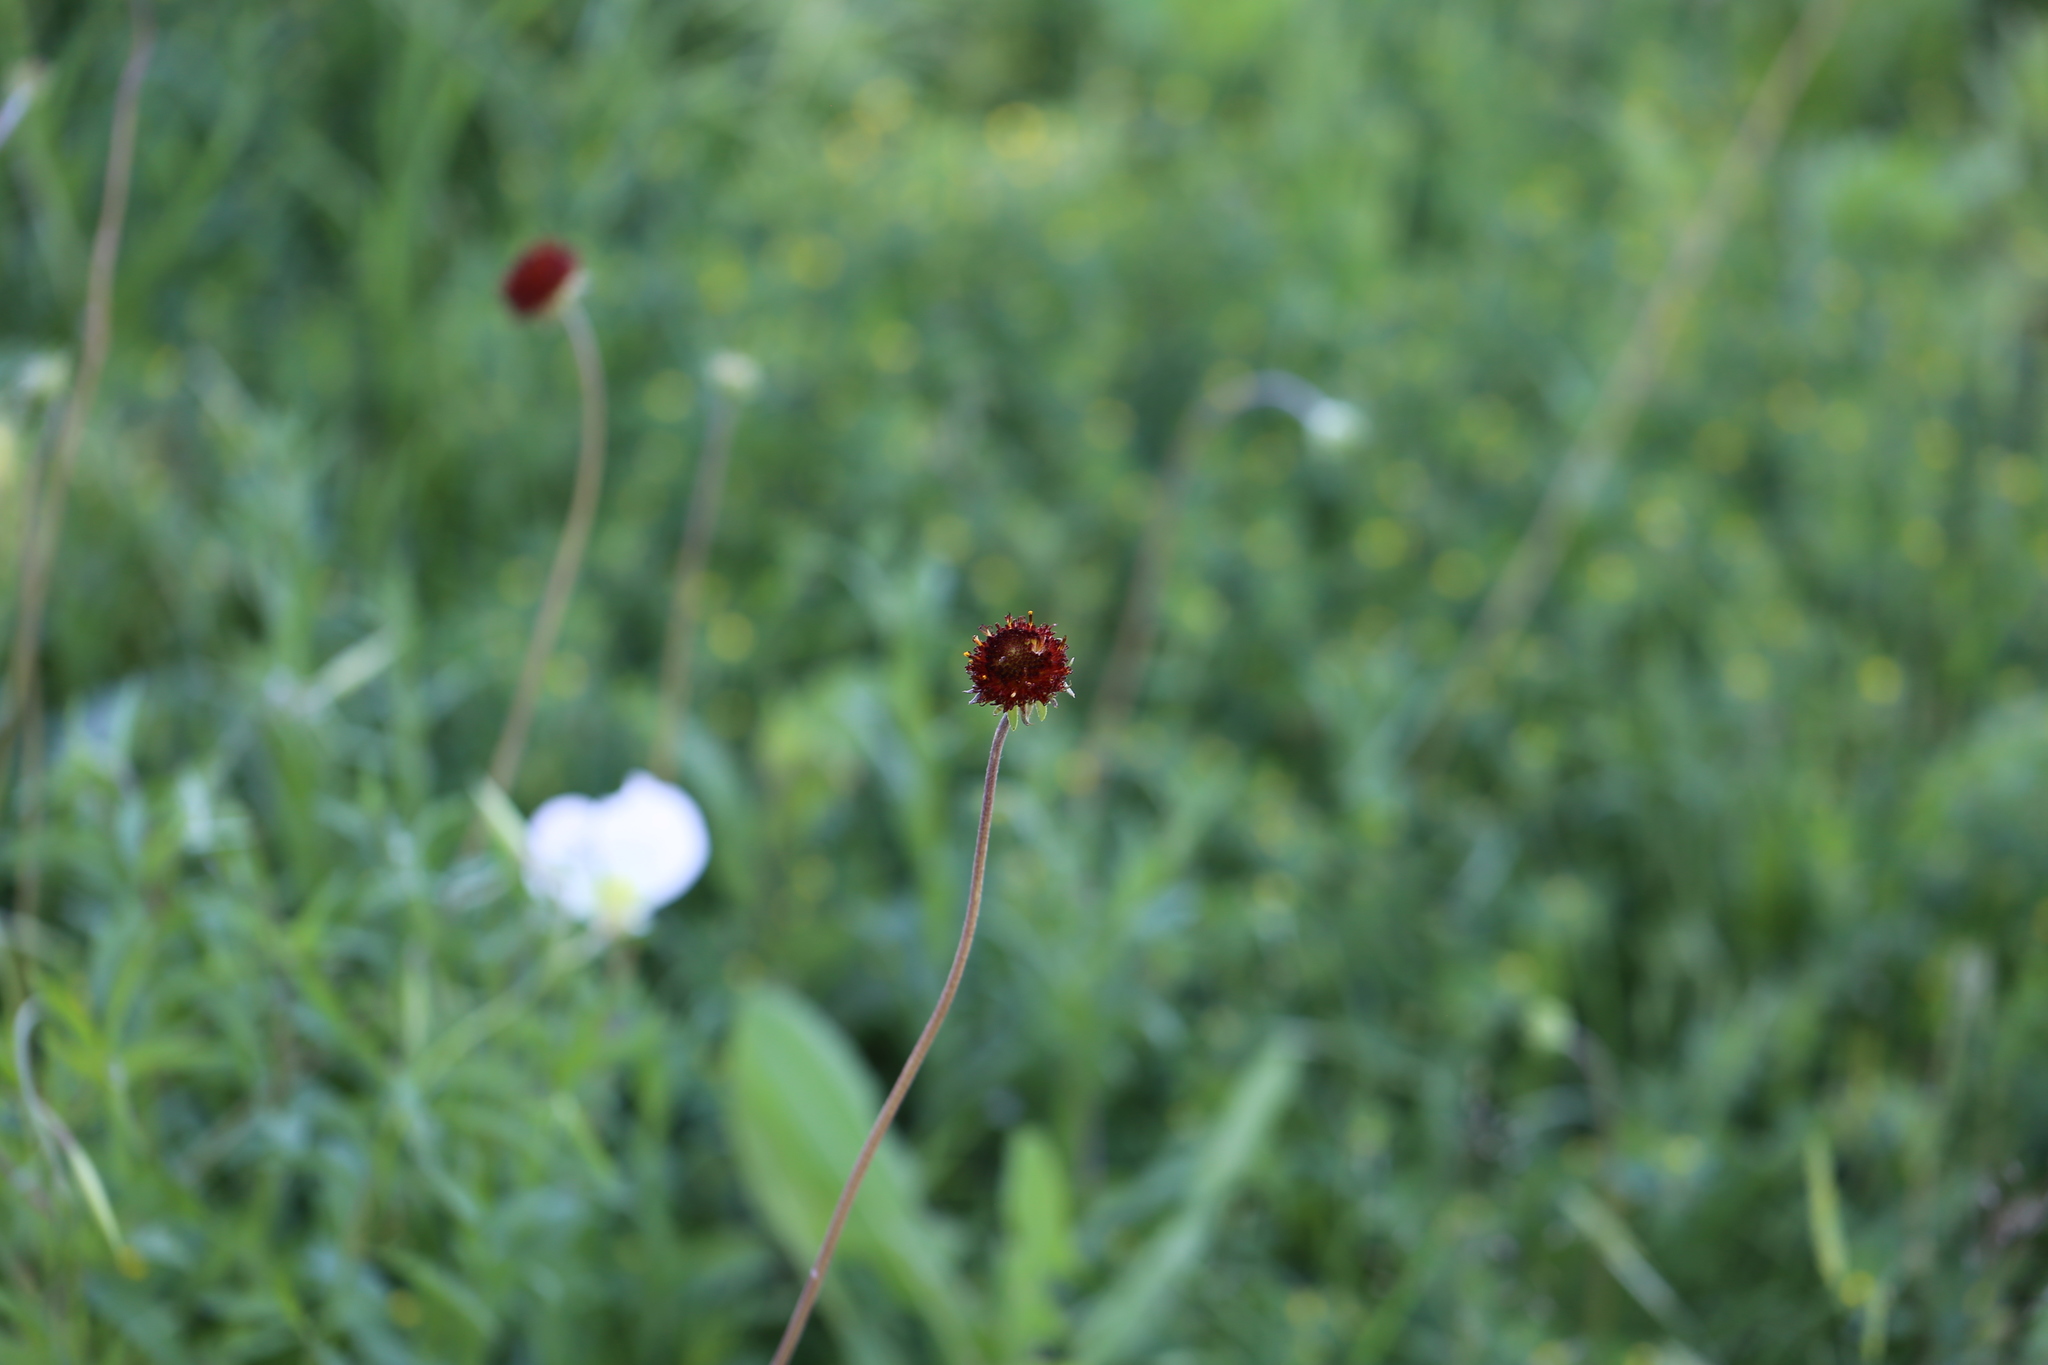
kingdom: Plantae
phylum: Tracheophyta
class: Magnoliopsida
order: Asterales
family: Asteraceae
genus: Gaillardia
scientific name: Gaillardia suavis
